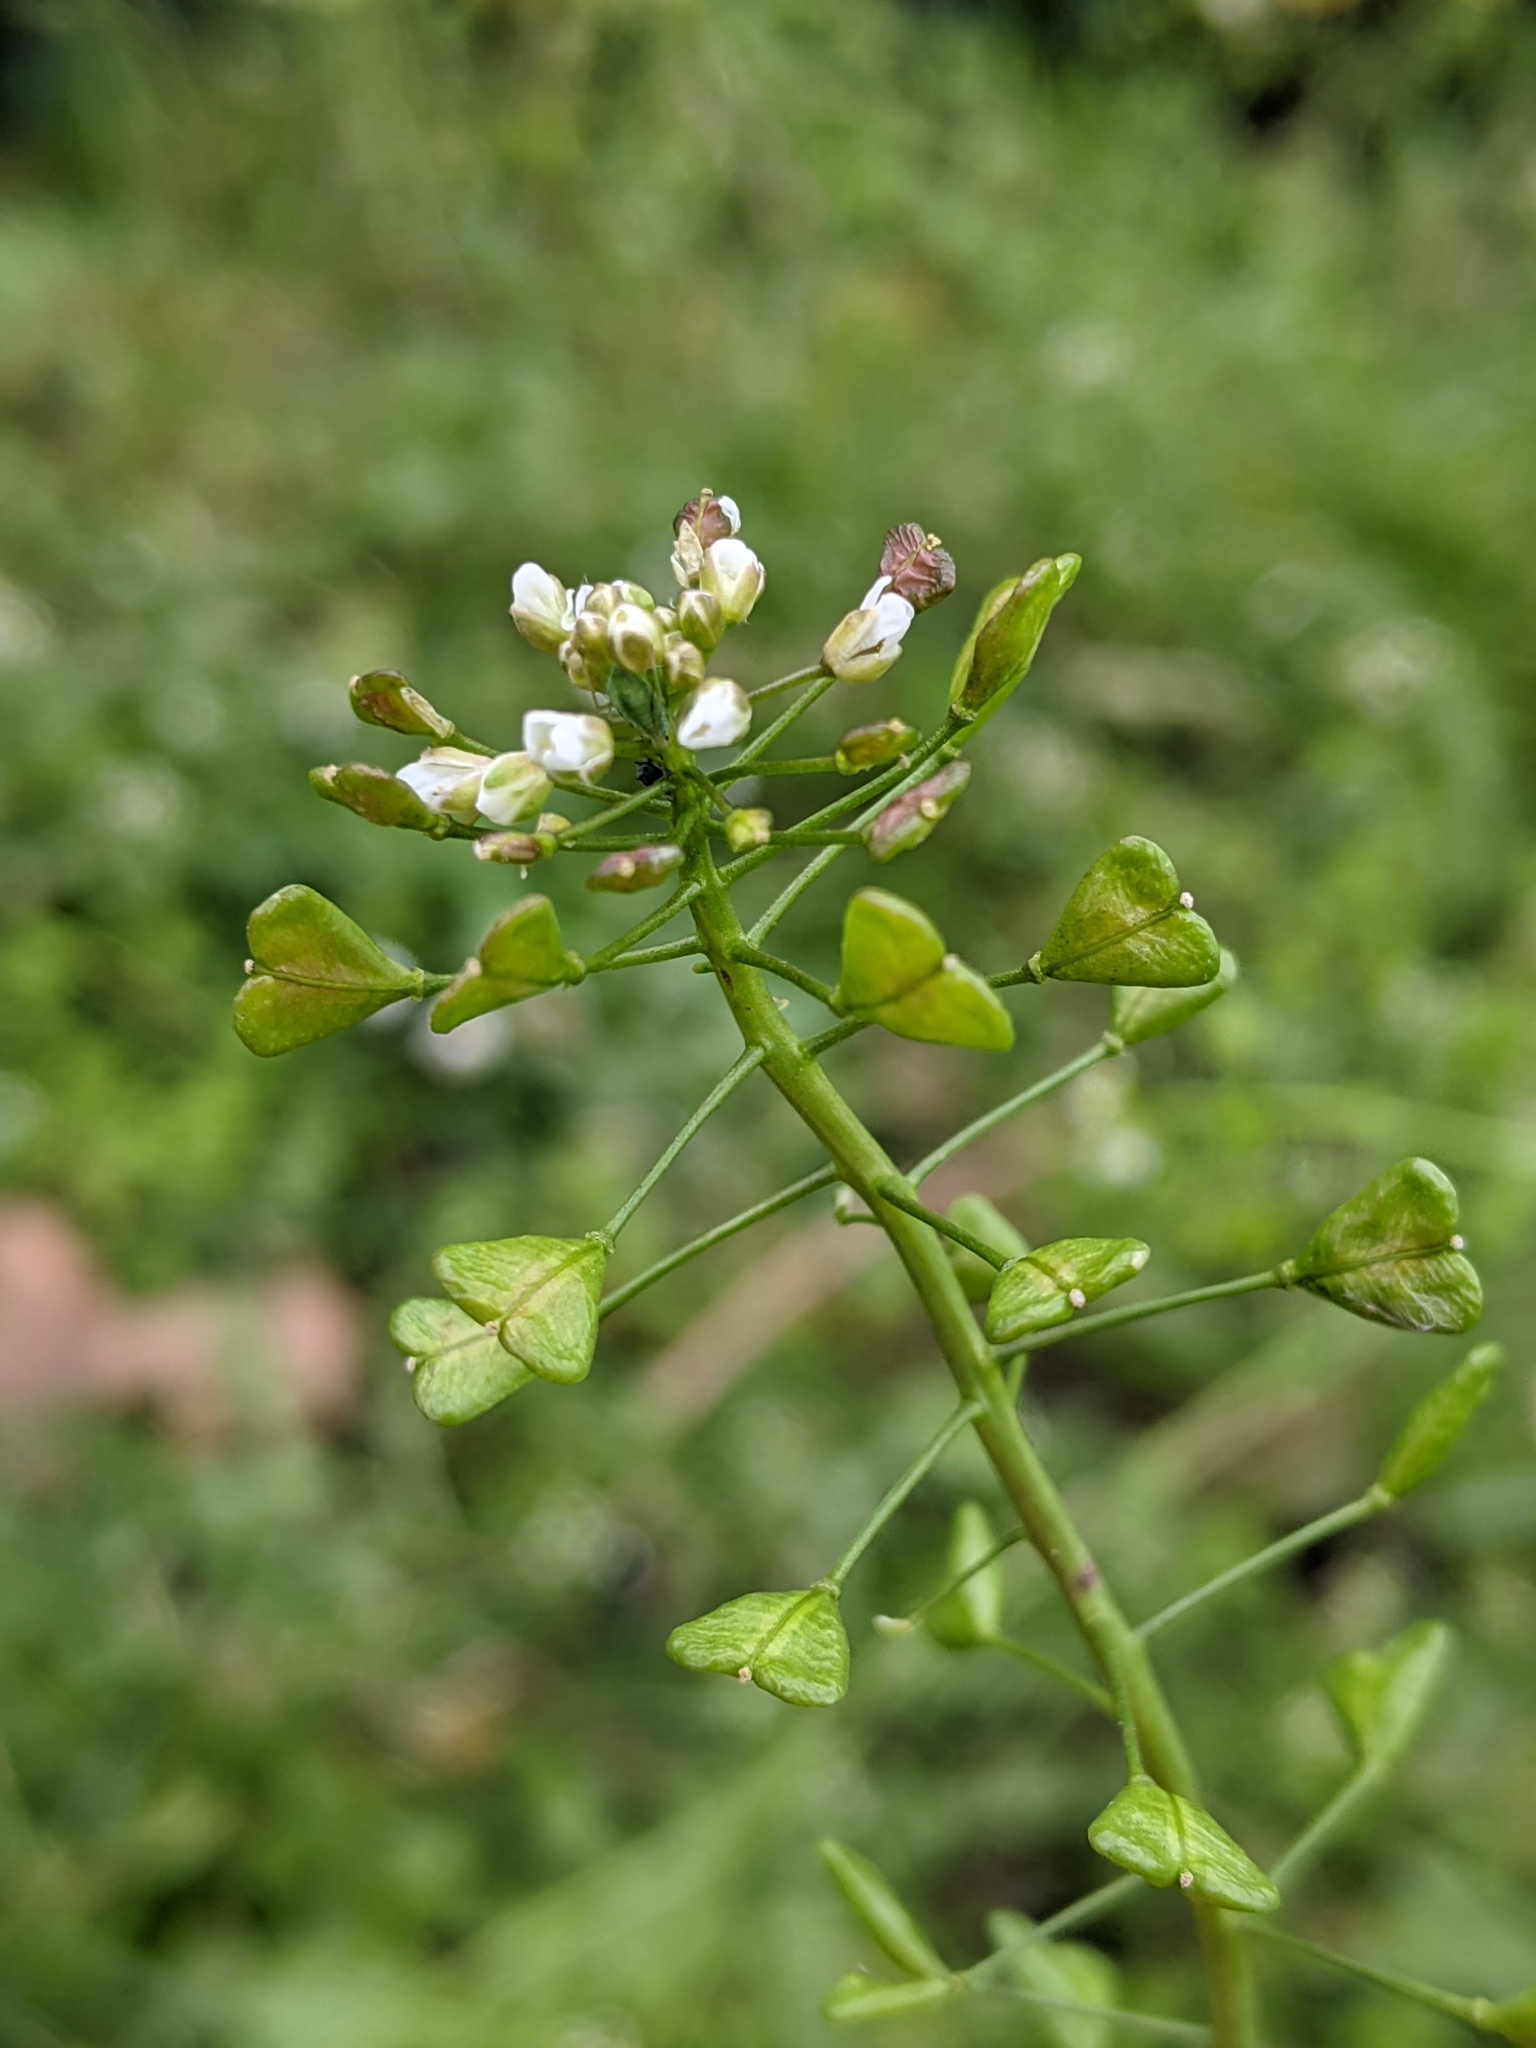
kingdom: Plantae
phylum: Tracheophyta
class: Magnoliopsida
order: Brassicales
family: Brassicaceae
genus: Capsella
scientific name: Capsella bursa-pastoris
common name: Shepherd's purse
